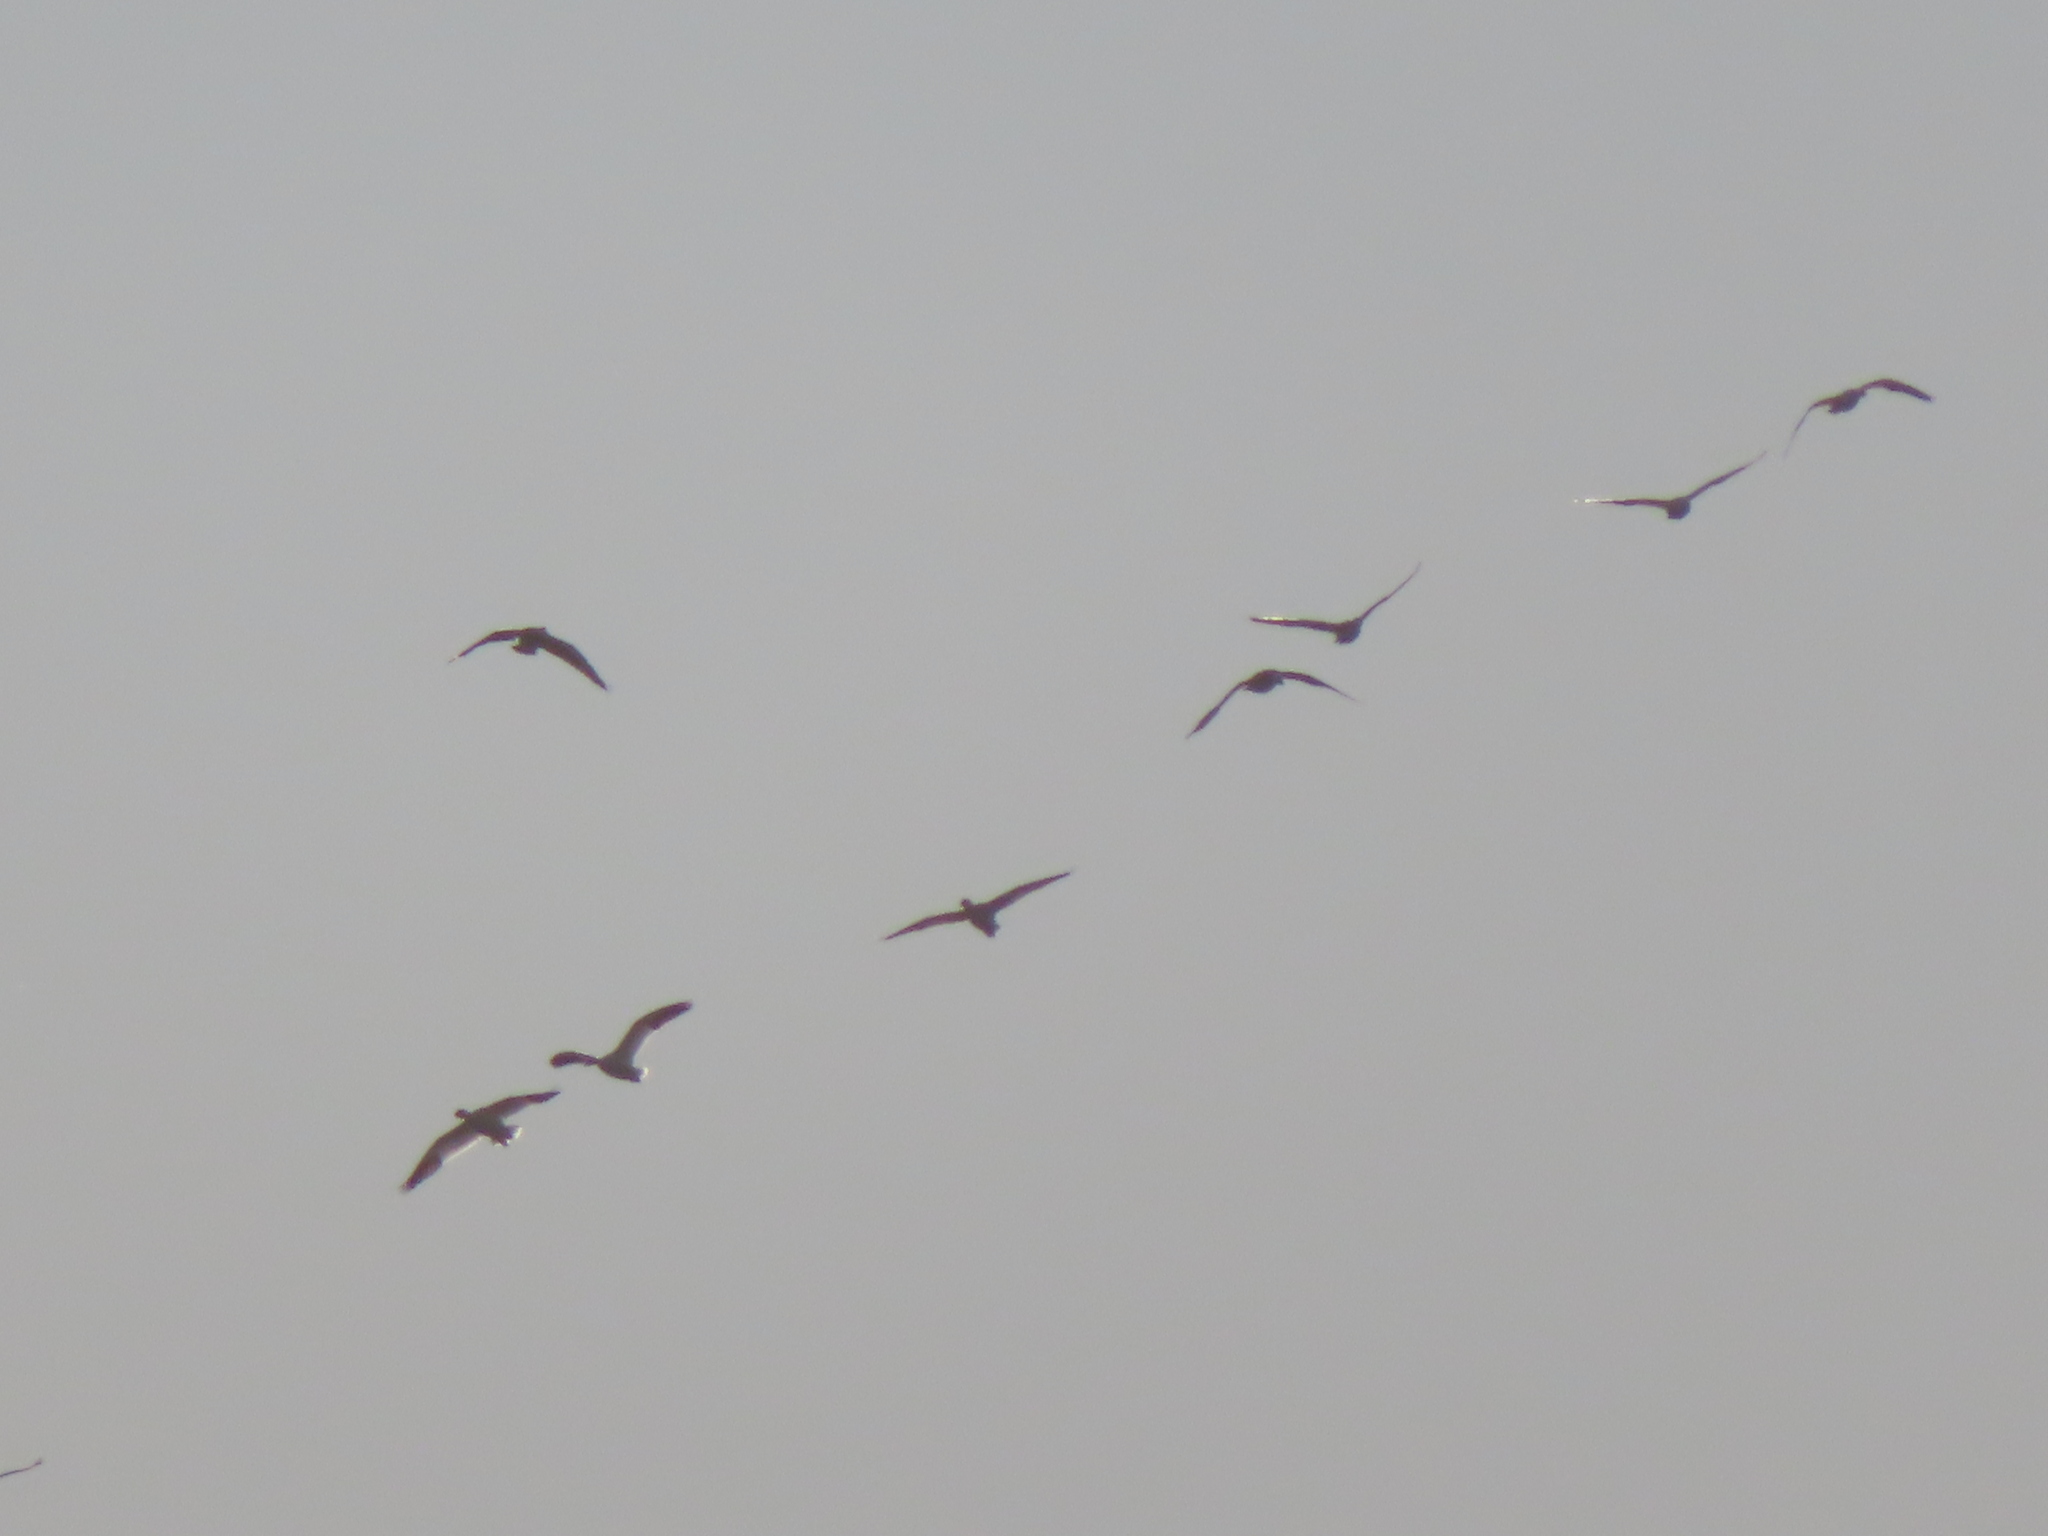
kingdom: Animalia
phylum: Chordata
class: Aves
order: Anseriformes
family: Anatidae
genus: Anser
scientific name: Anser caerulescens
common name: Snow goose
